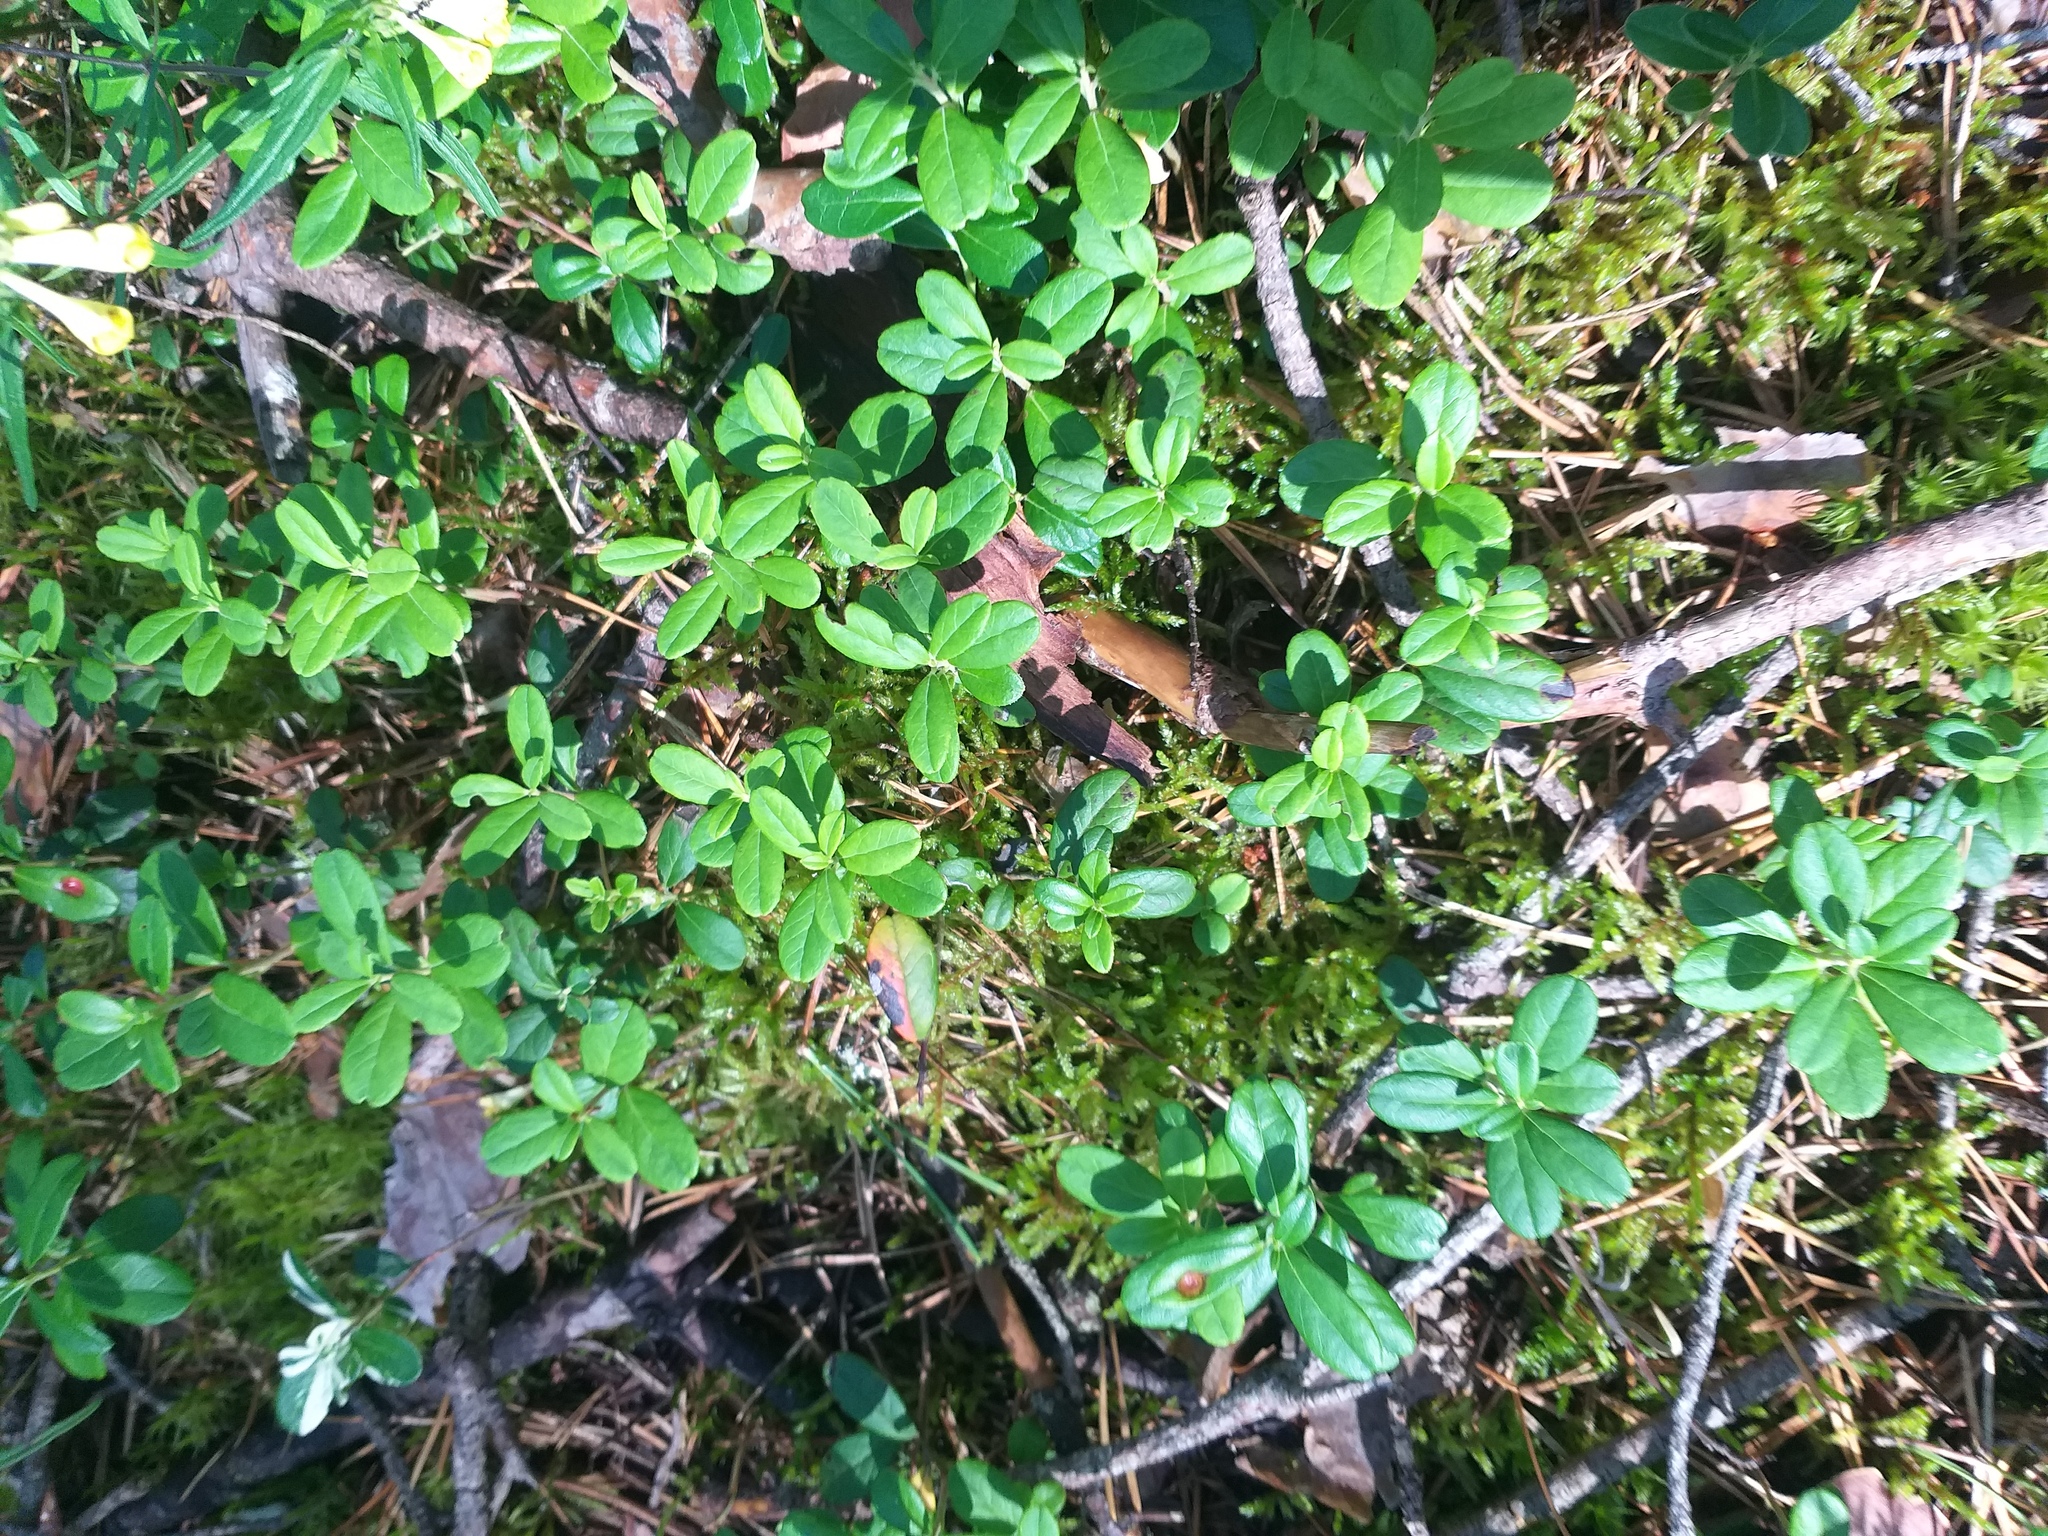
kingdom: Plantae
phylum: Tracheophyta
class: Magnoliopsida
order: Ericales
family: Ericaceae
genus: Vaccinium
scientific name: Vaccinium vitis-idaea
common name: Cowberry
